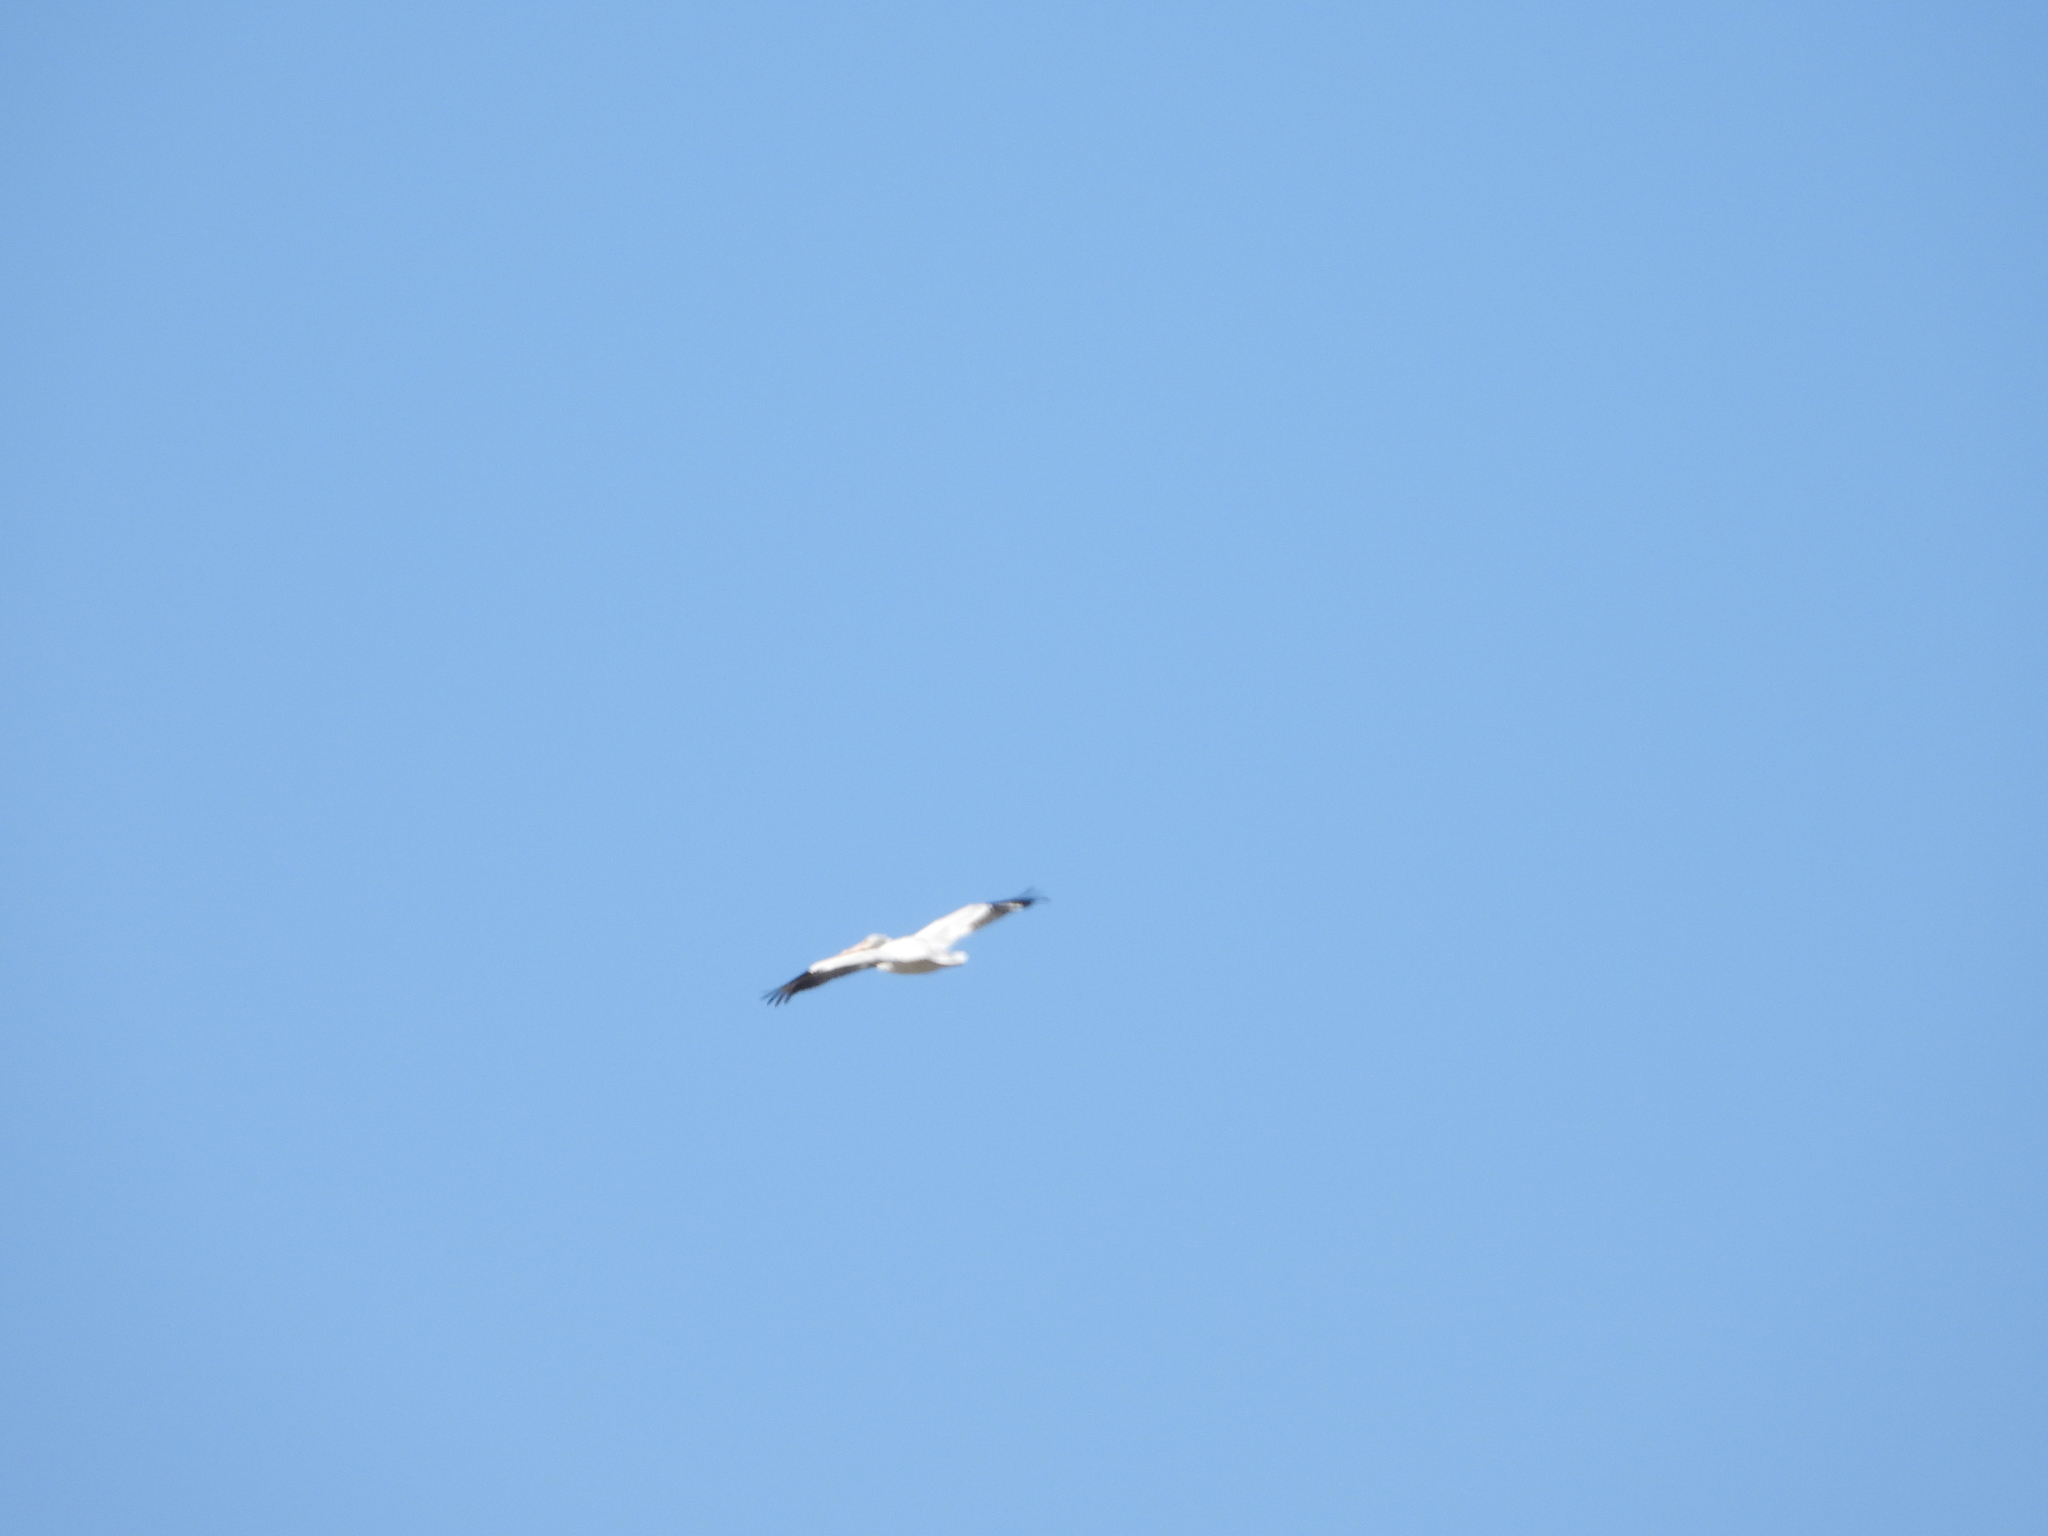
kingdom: Animalia
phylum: Chordata
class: Aves
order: Pelecaniformes
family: Pelecanidae
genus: Pelecanus
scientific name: Pelecanus erythrorhynchos
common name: American white pelican
